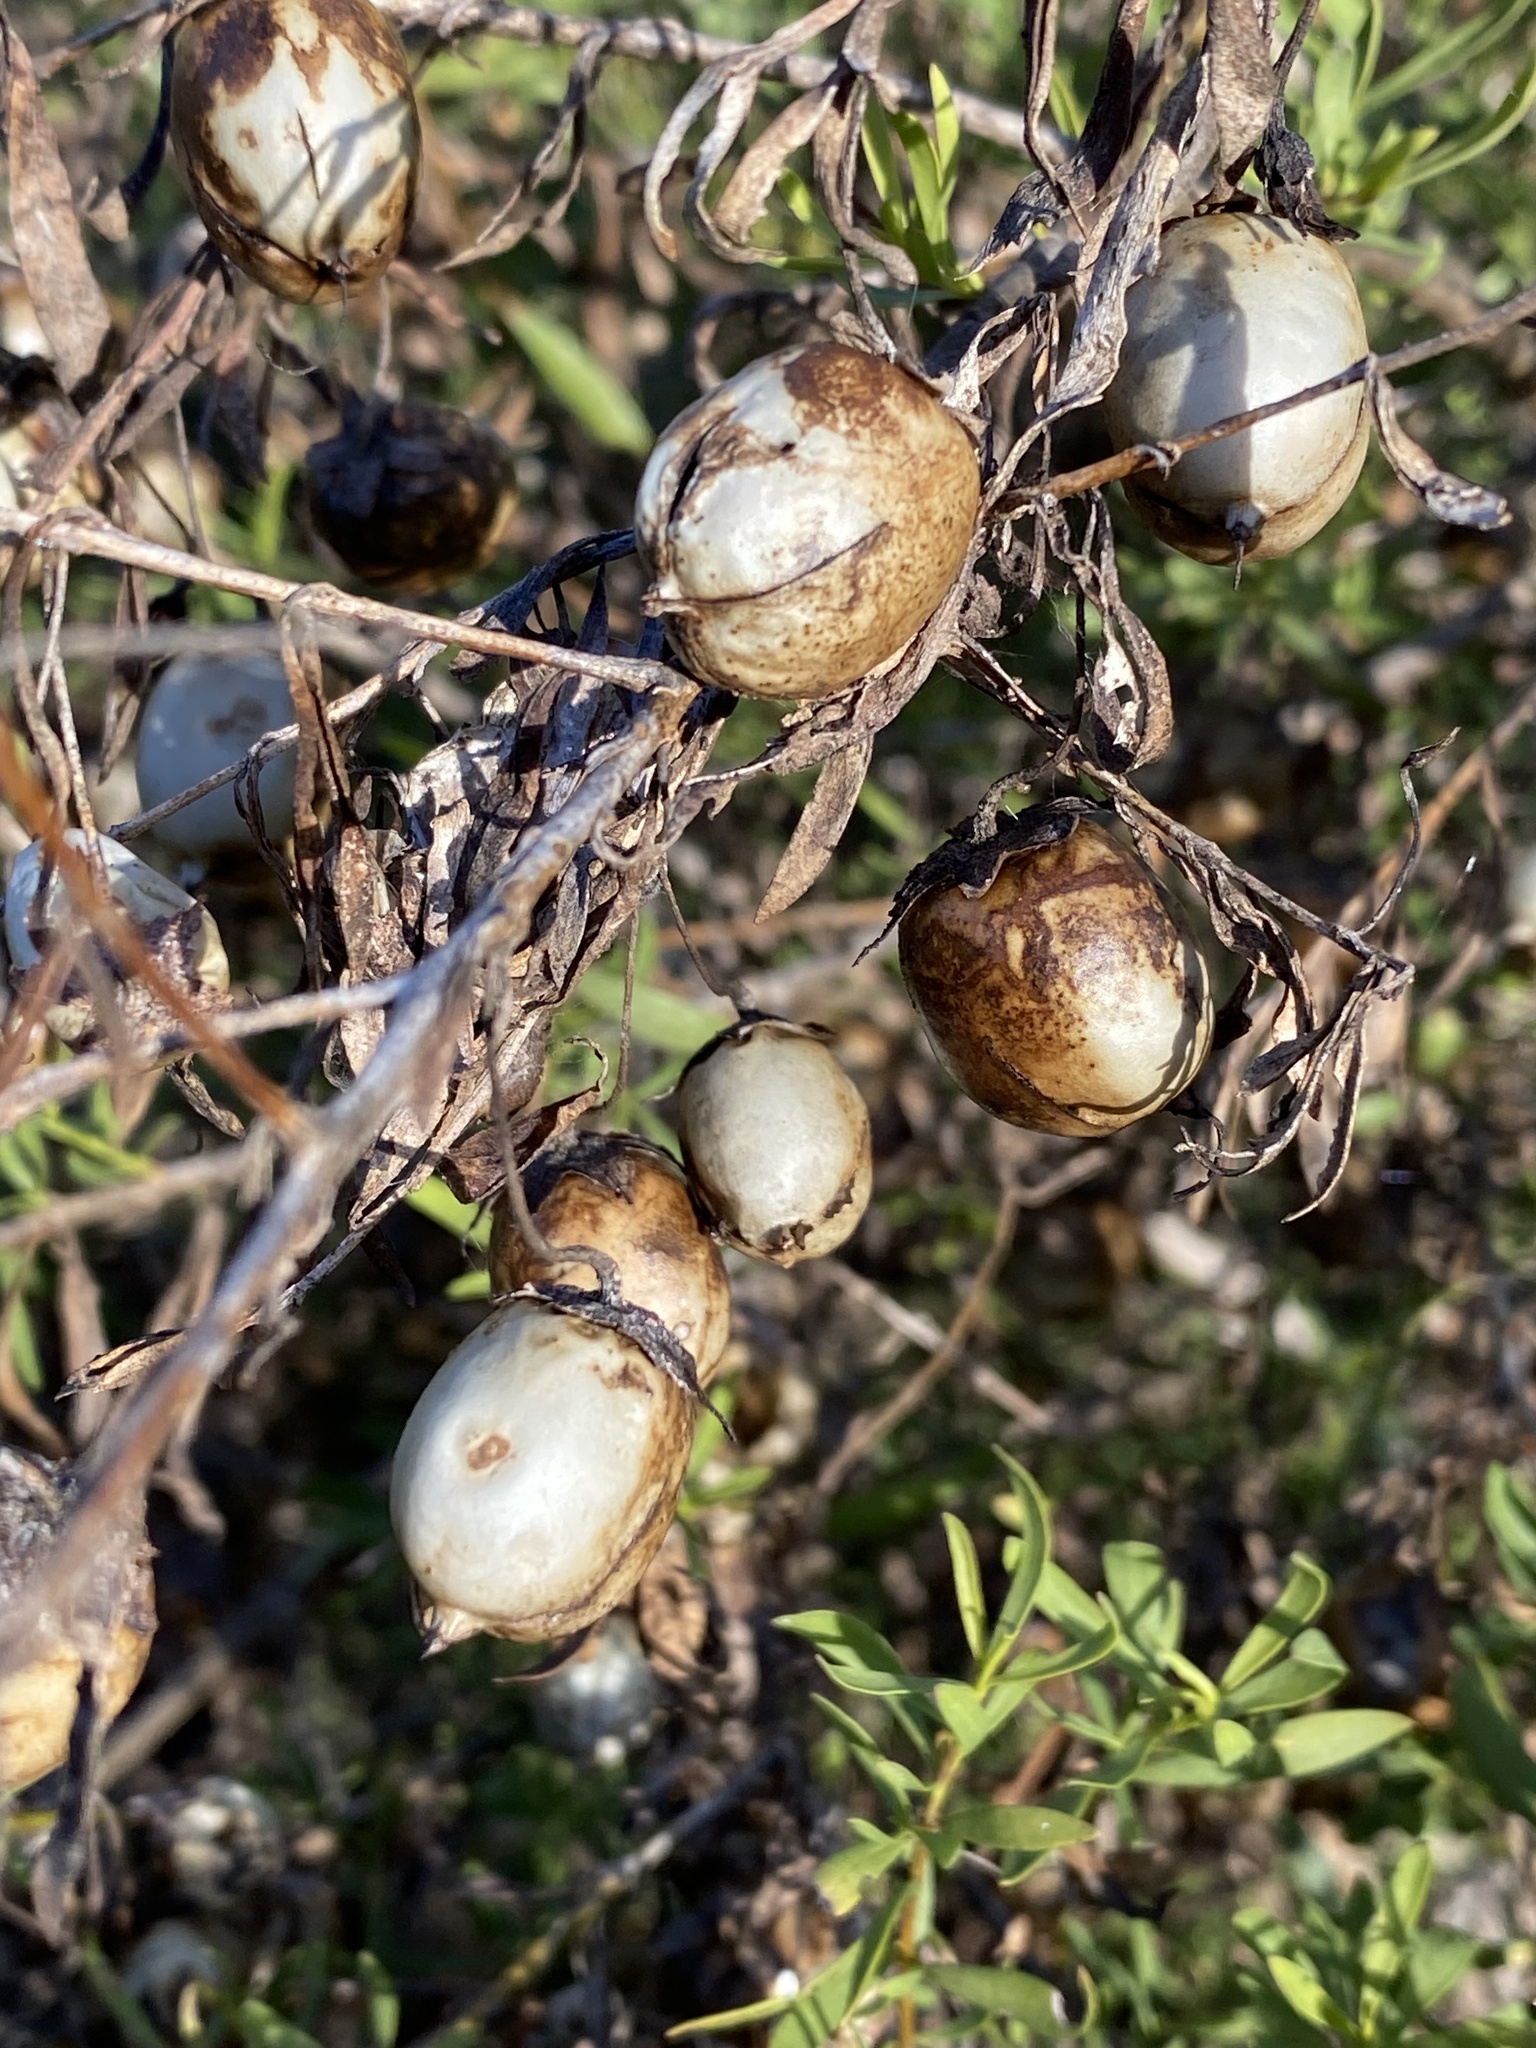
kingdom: Plantae
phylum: Tracheophyta
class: Magnoliopsida
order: Lamiales
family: Scrophulariaceae
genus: Eremophila
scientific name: Eremophila maculata
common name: Fuchsiabush
